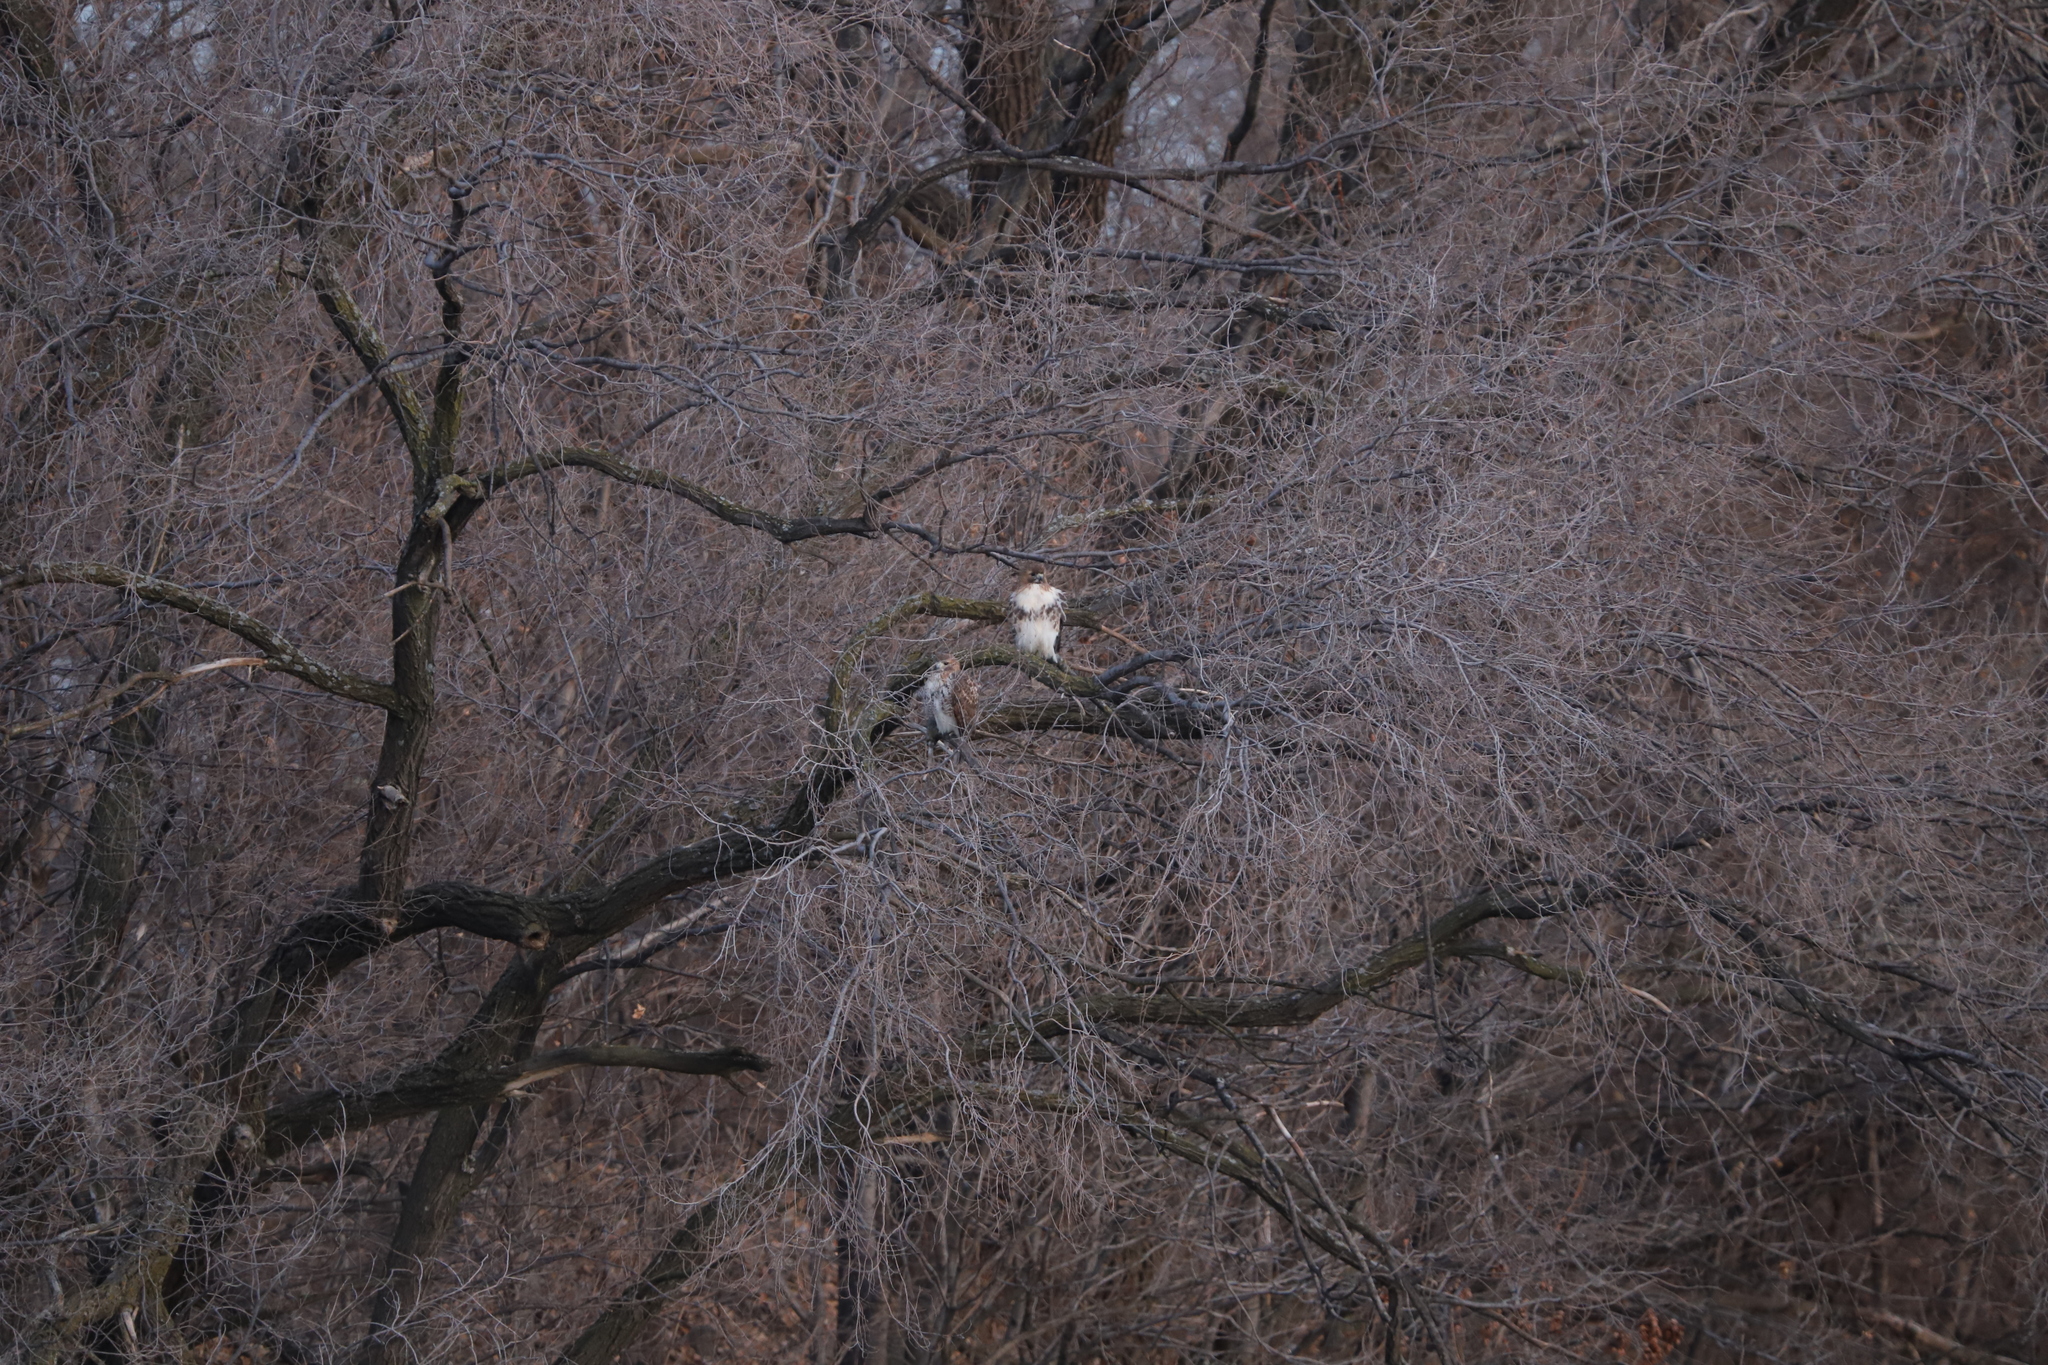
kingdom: Animalia
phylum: Chordata
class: Aves
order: Accipitriformes
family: Accipitridae
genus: Buteo
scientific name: Buteo jamaicensis
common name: Red-tailed hawk
